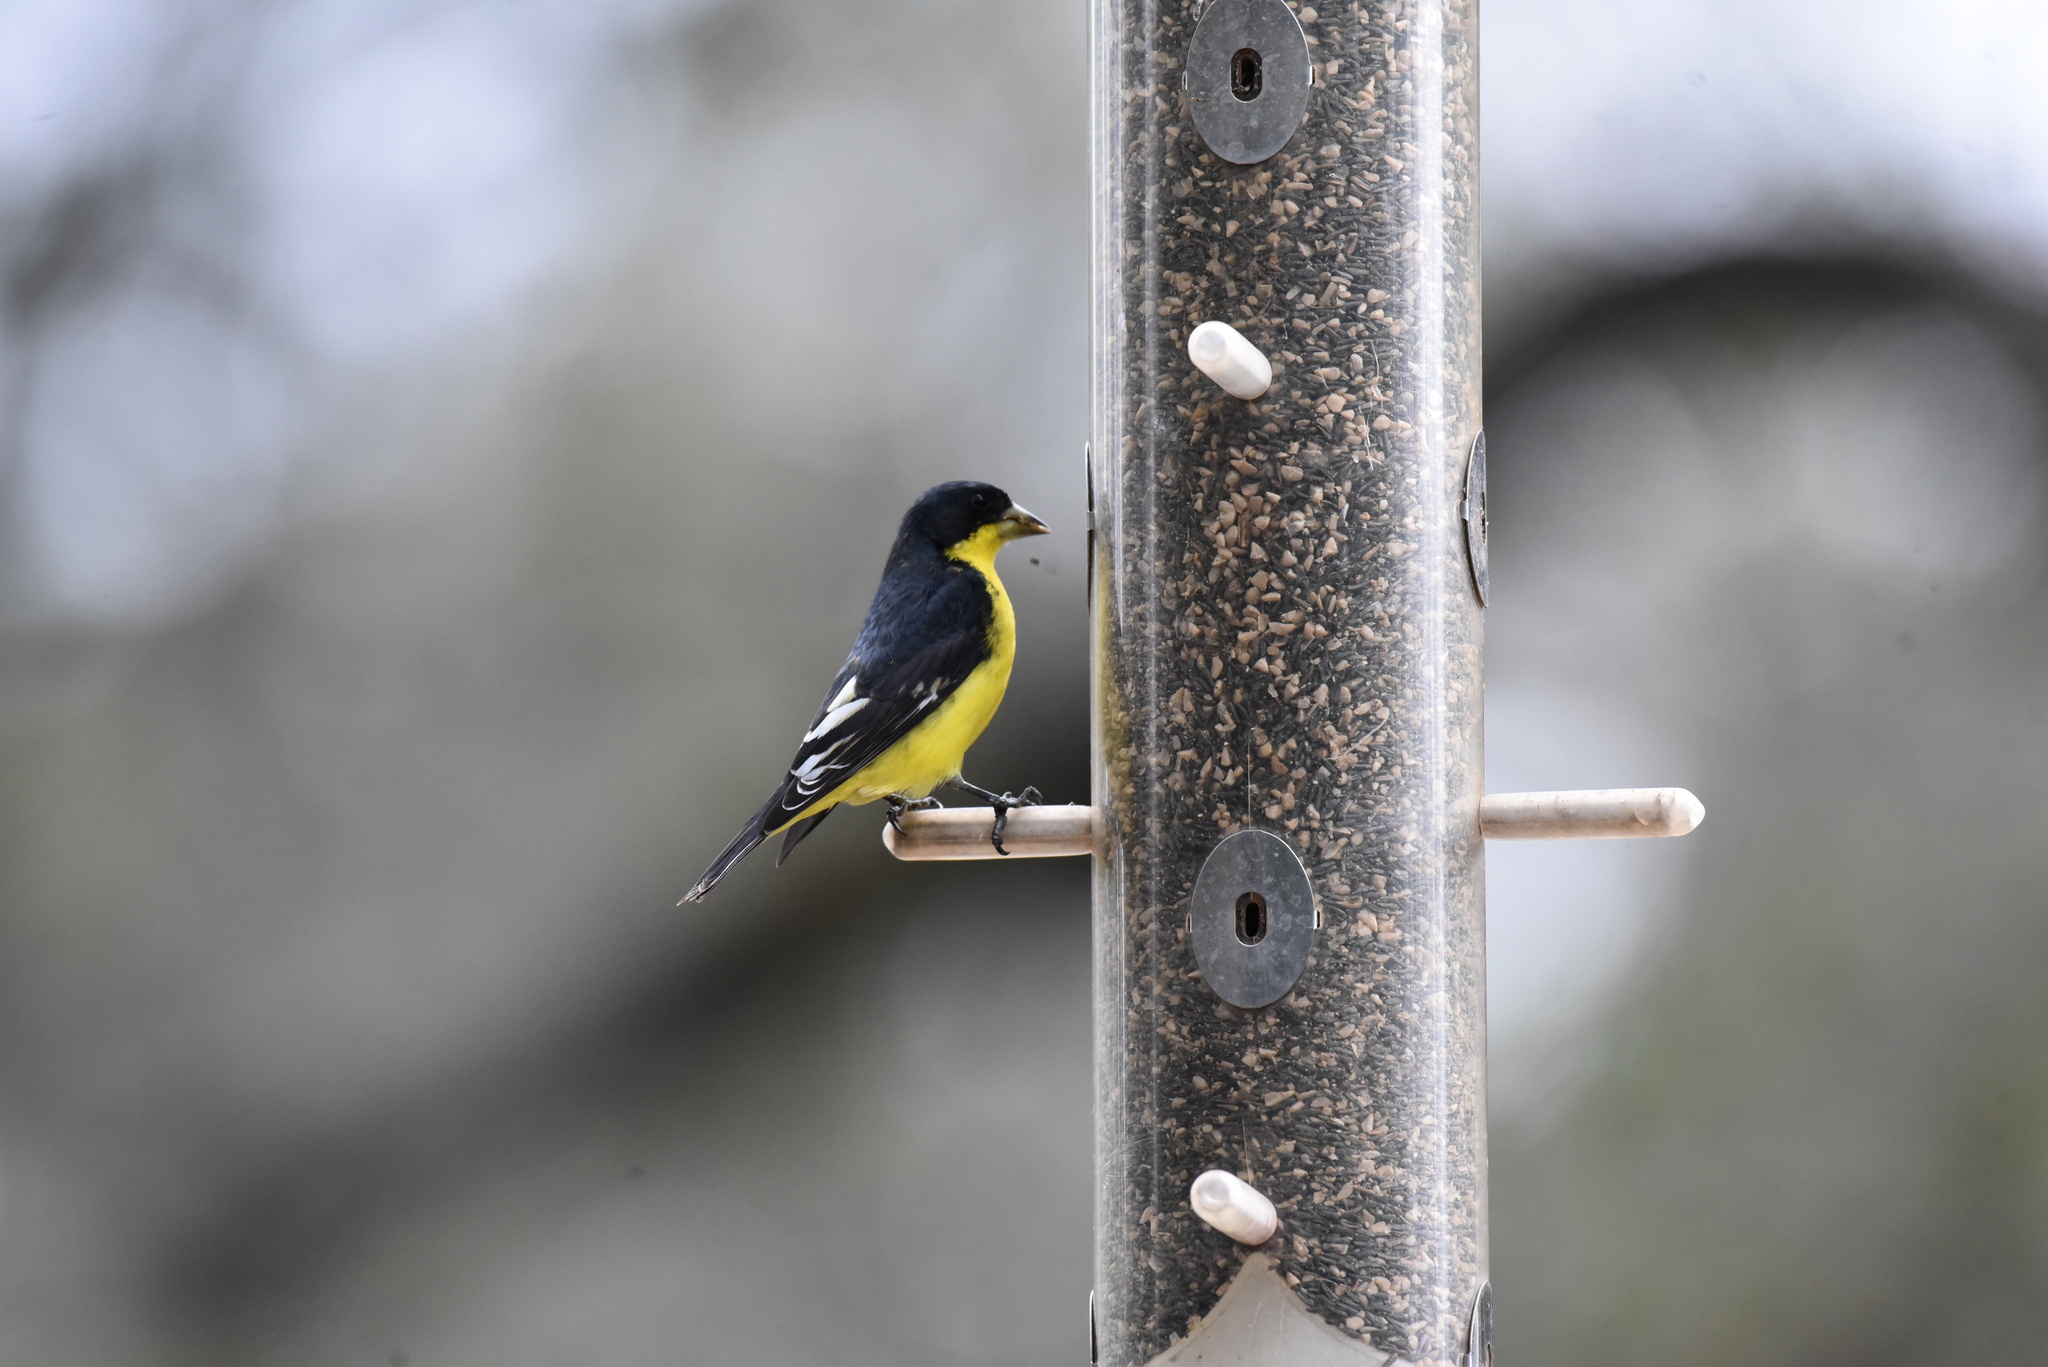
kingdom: Animalia
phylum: Chordata
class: Aves
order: Passeriformes
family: Fringillidae
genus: Spinus
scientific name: Spinus psaltria
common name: Lesser goldfinch
